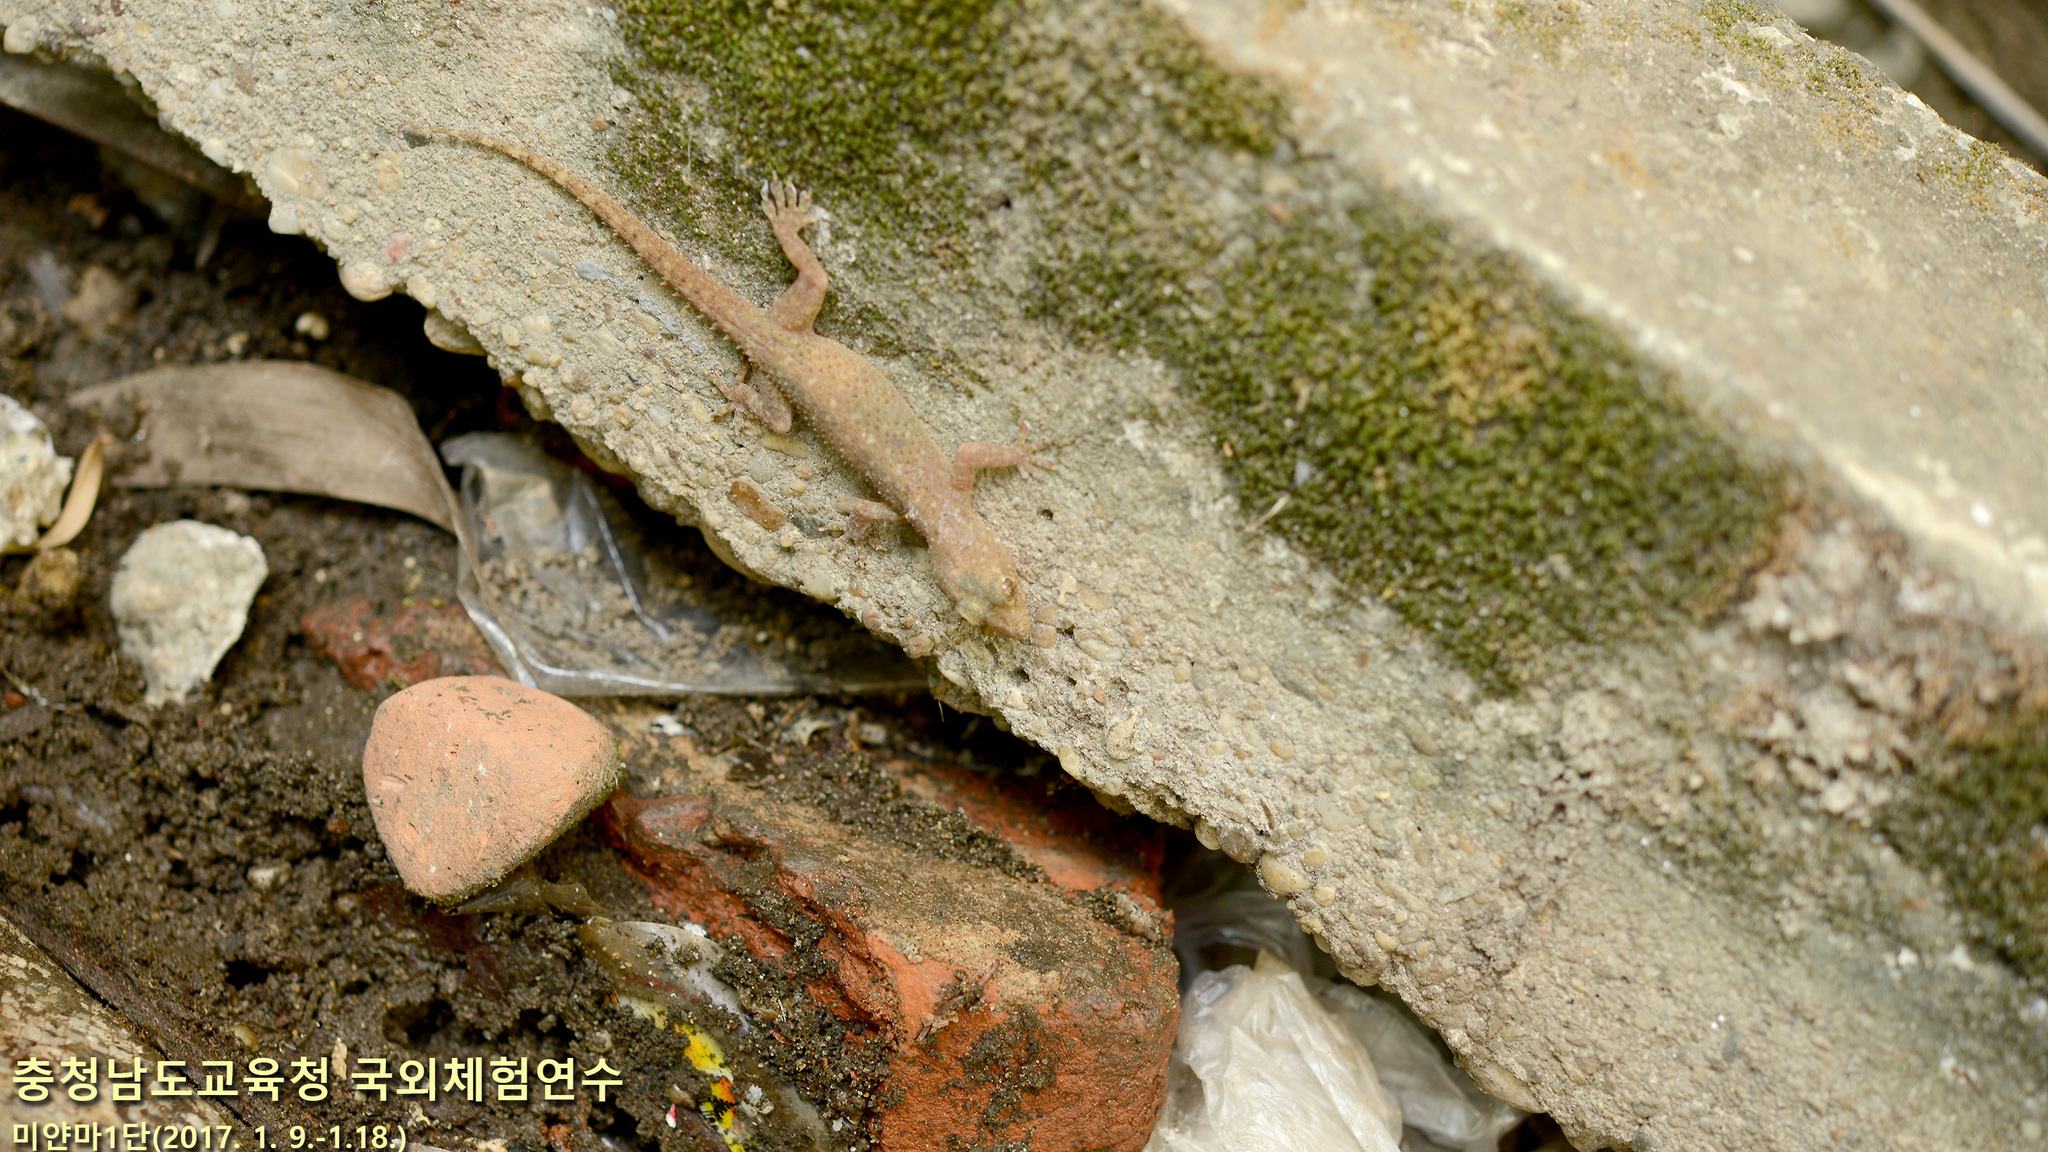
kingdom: Animalia
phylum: Chordata
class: Squamata
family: Gekkonidae
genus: Hemidactylus
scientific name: Hemidactylus frenatus
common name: Common house gecko
